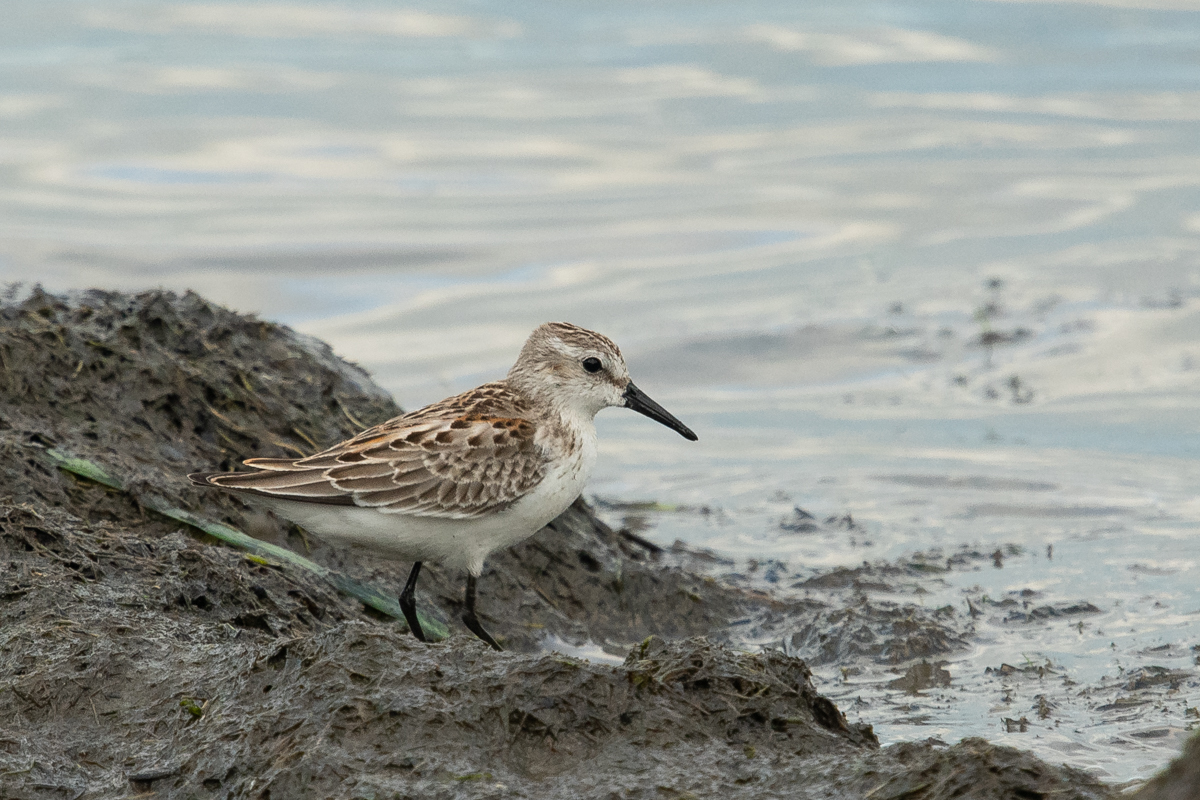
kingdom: Animalia
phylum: Chordata
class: Aves
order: Charadriiformes
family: Scolopacidae
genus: Calidris
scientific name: Calidris mauri
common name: Western sandpiper
